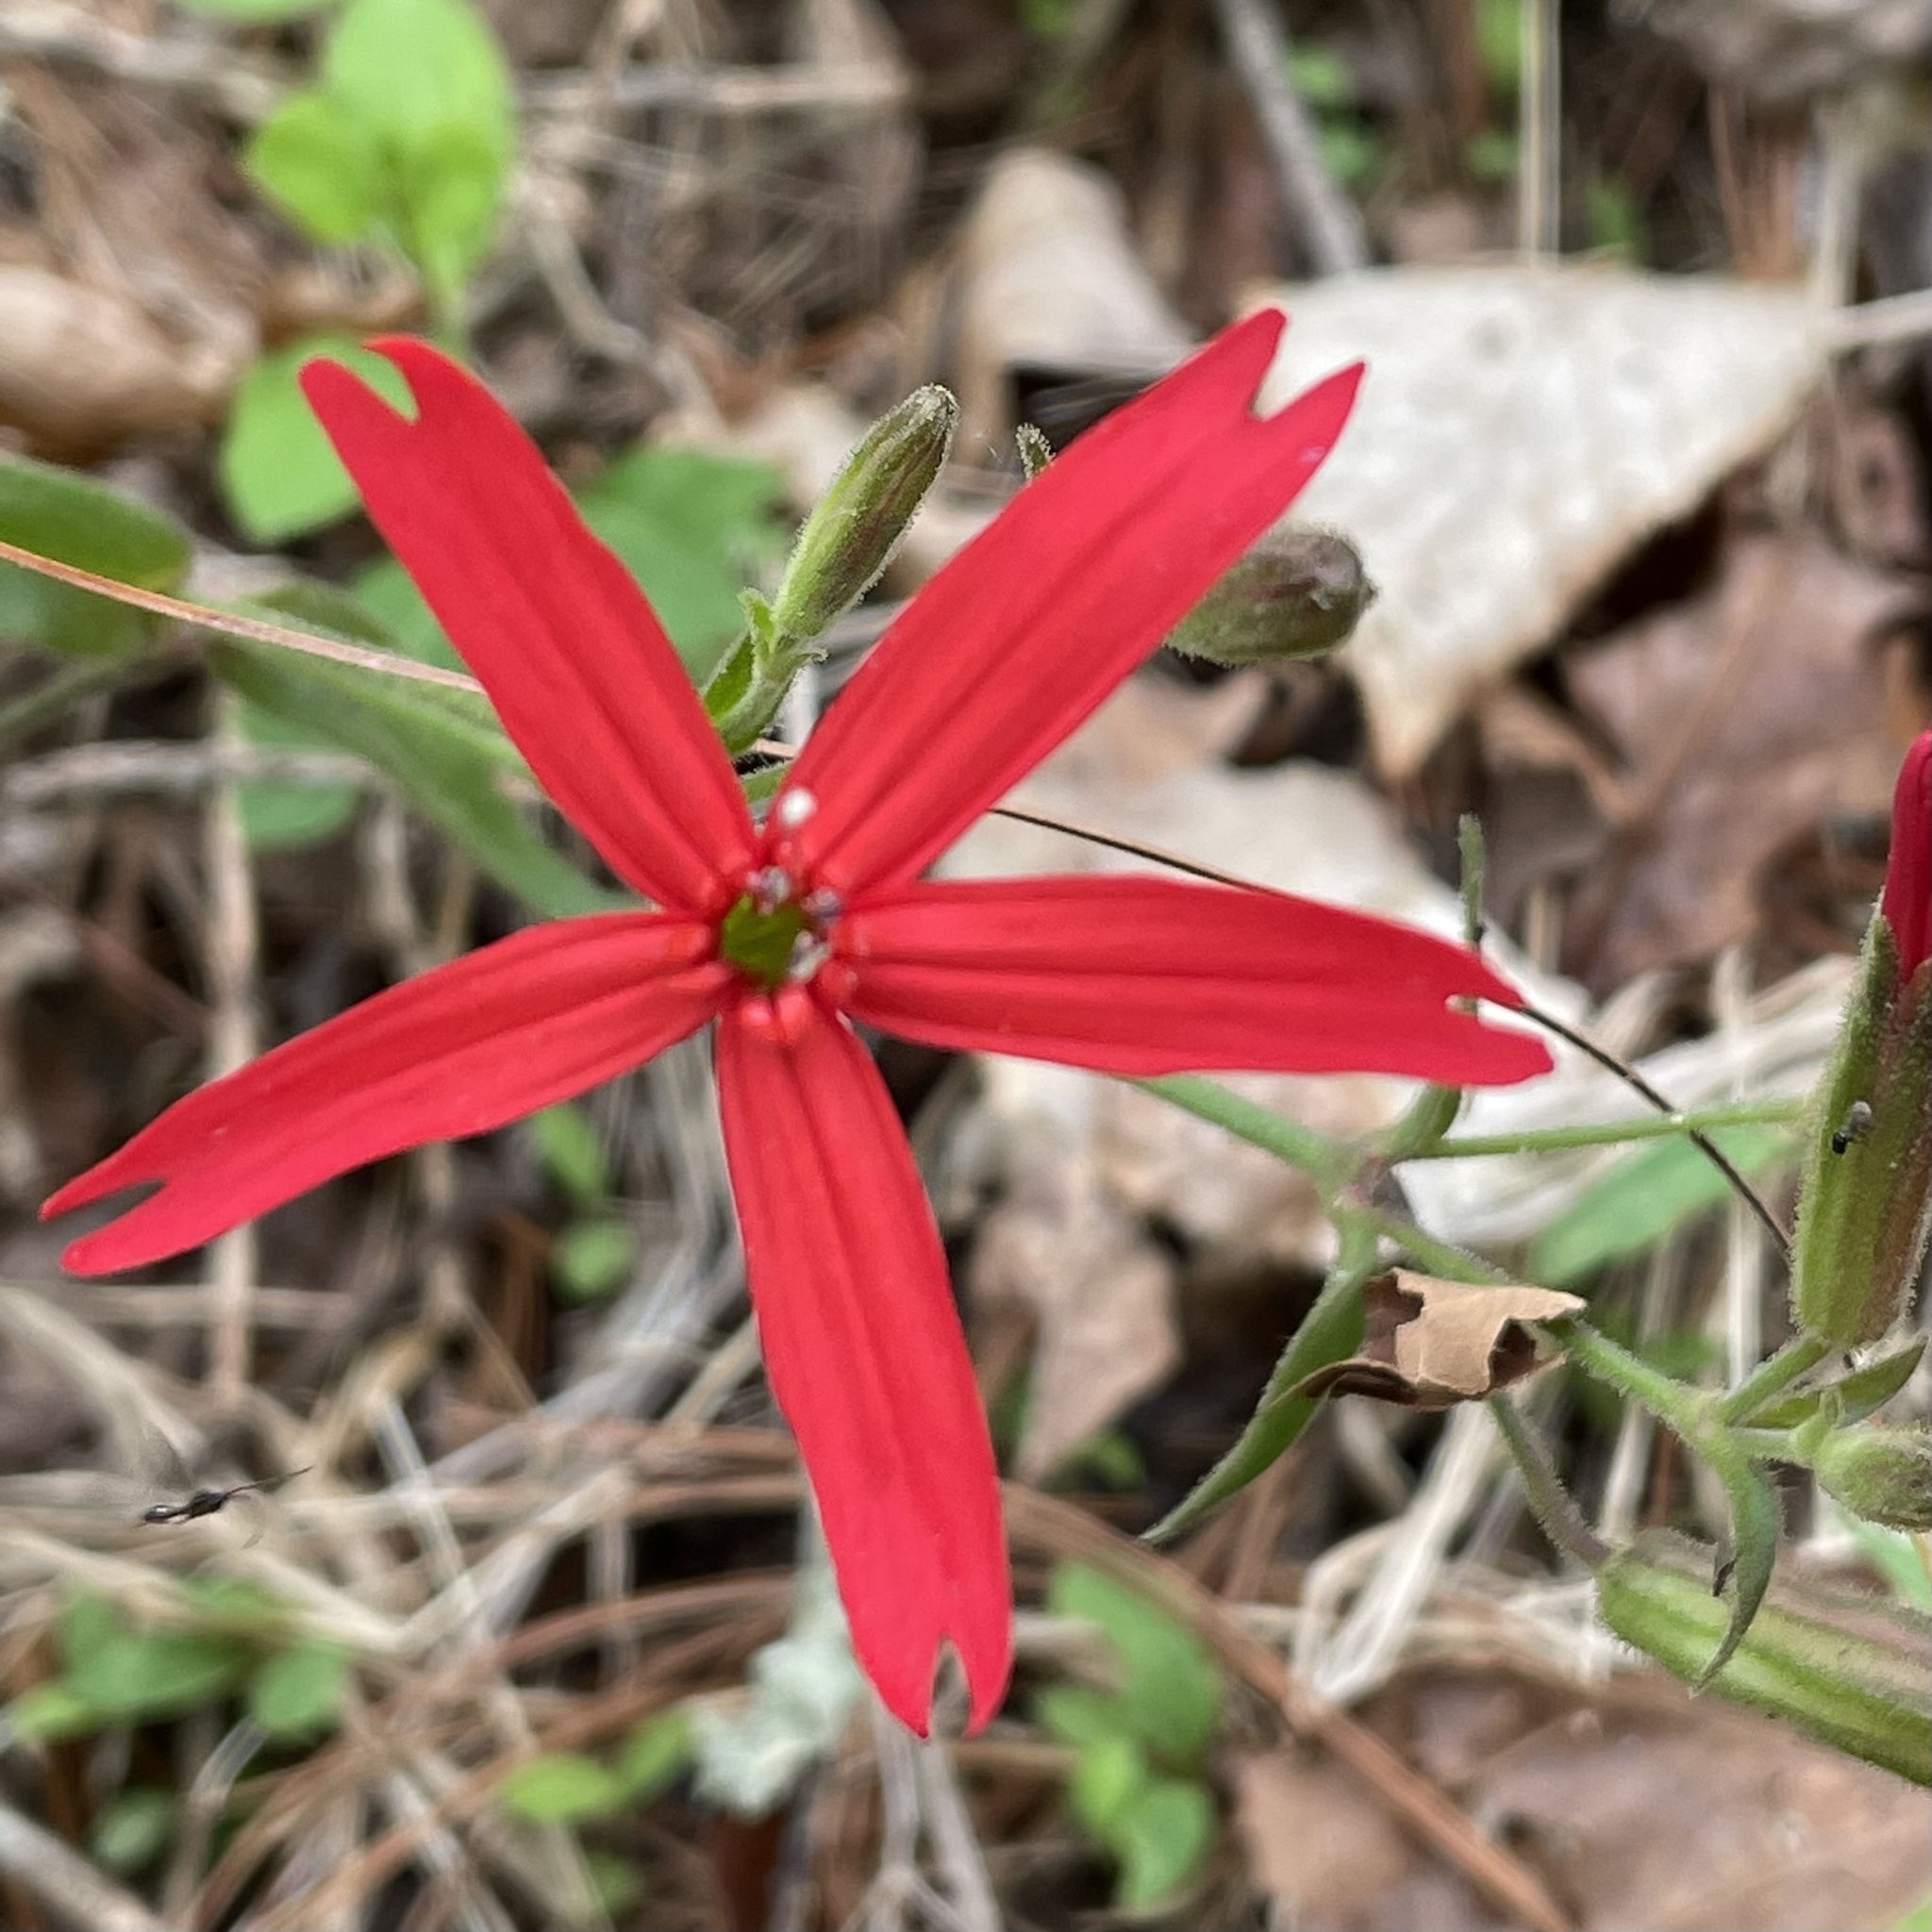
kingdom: Plantae
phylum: Tracheophyta
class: Magnoliopsida
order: Caryophyllales
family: Caryophyllaceae
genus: Silene
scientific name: Silene virginica
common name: Fire-pink
